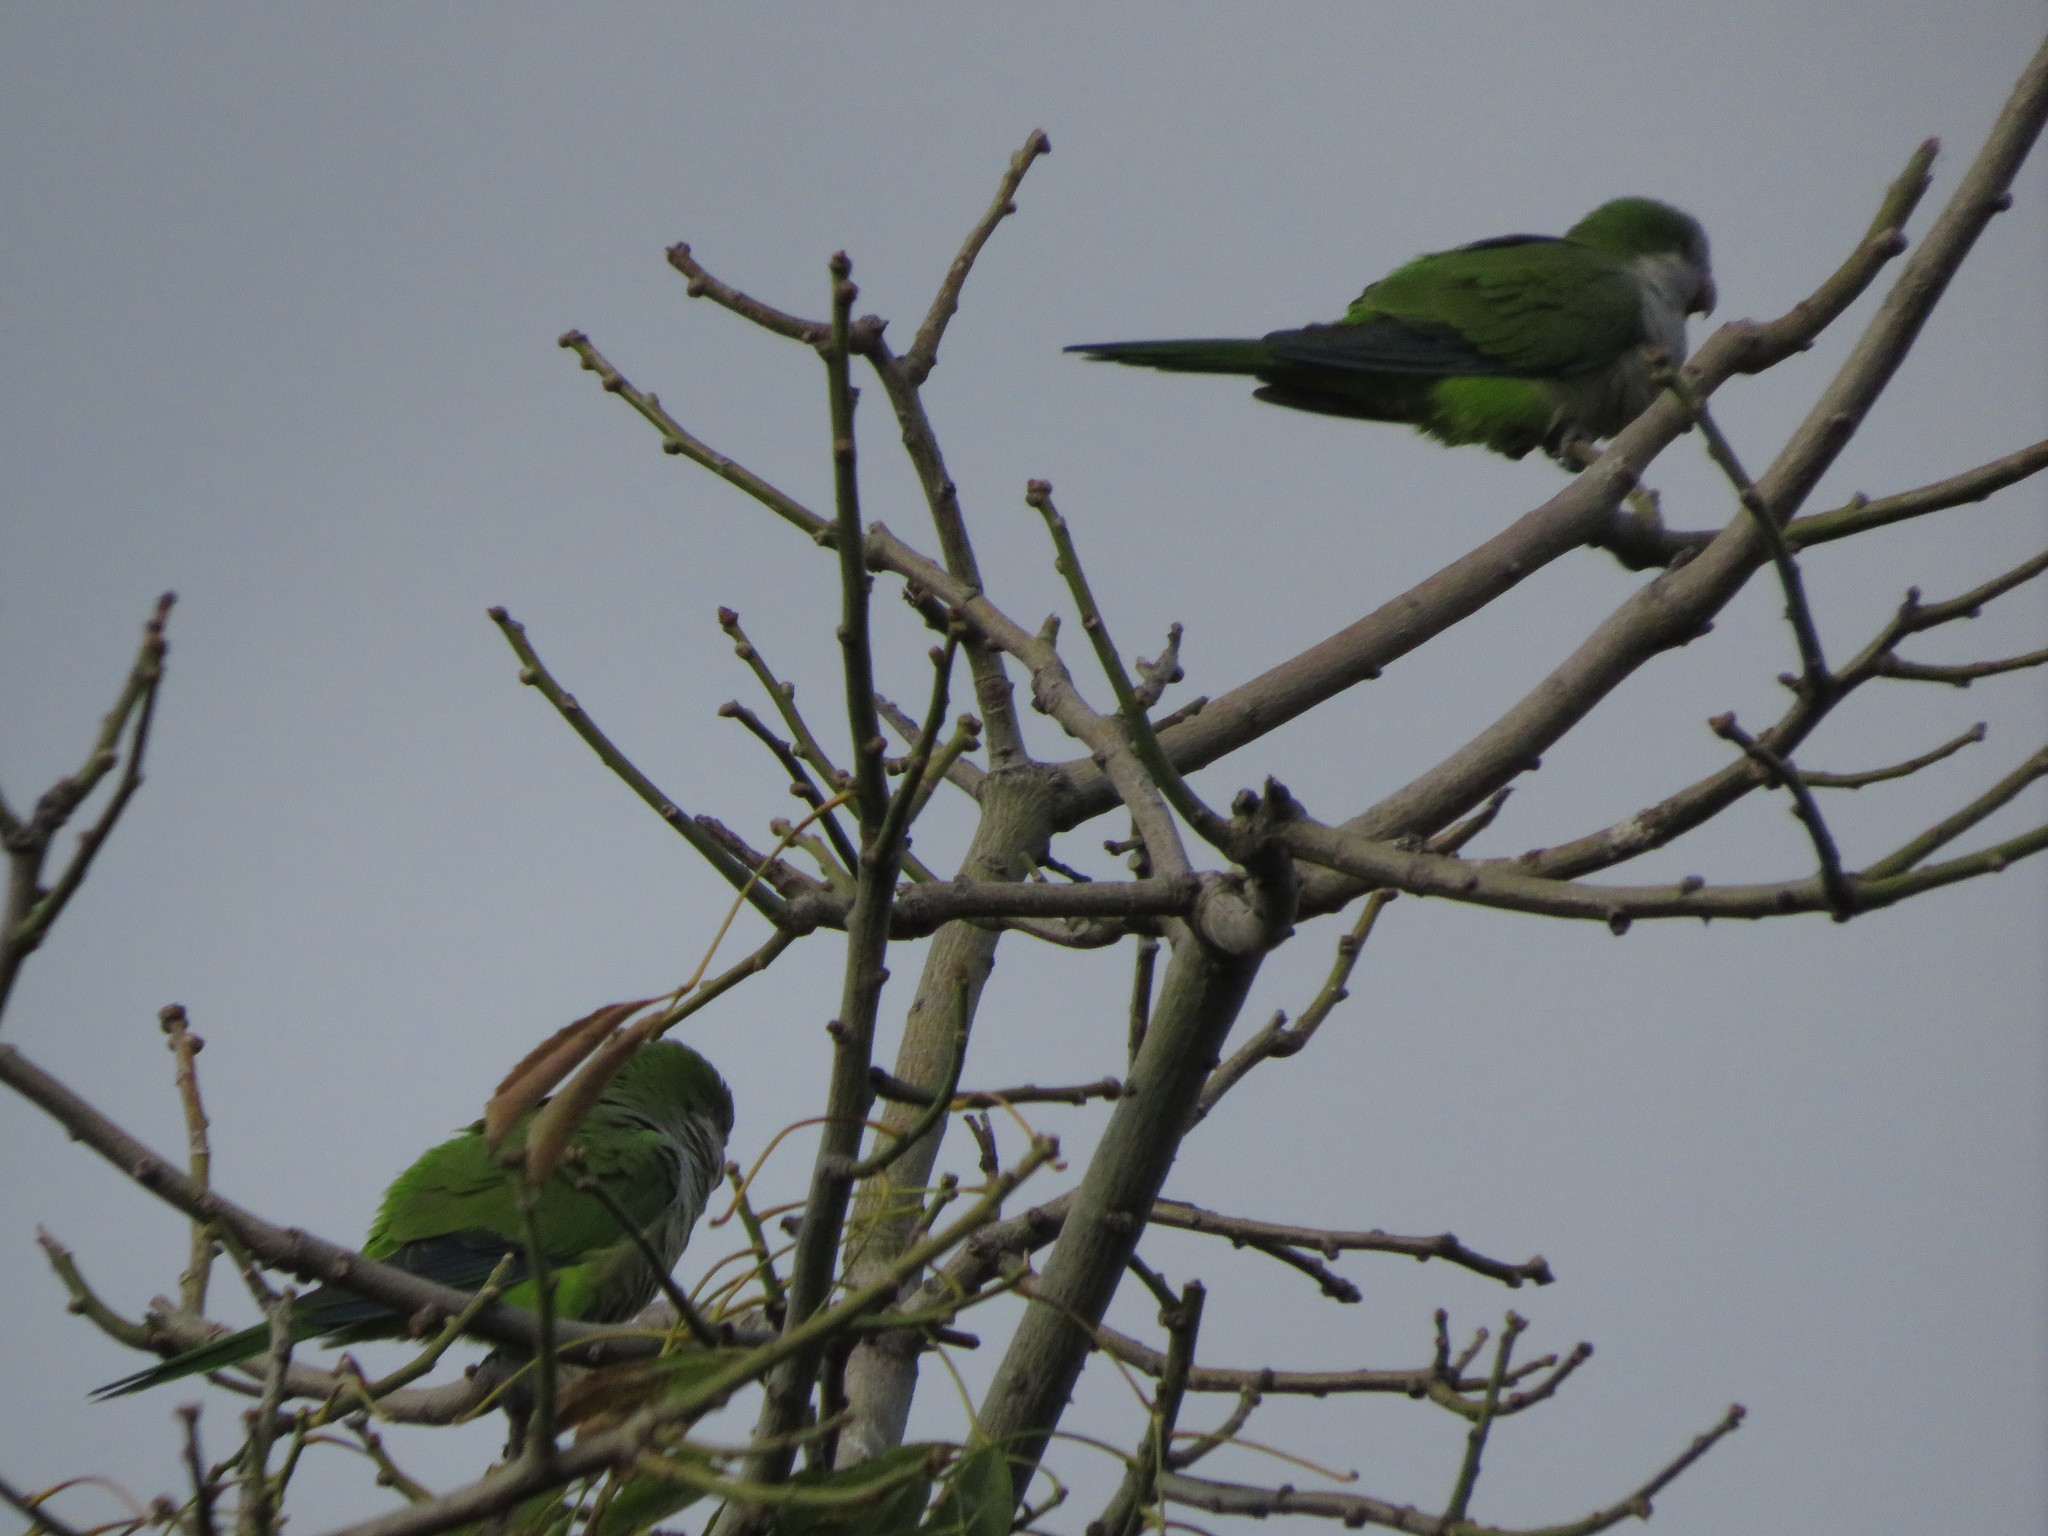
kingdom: Animalia
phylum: Chordata
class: Aves
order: Psittaciformes
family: Psittacidae
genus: Myiopsitta
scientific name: Myiopsitta monachus
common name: Monk parakeet
